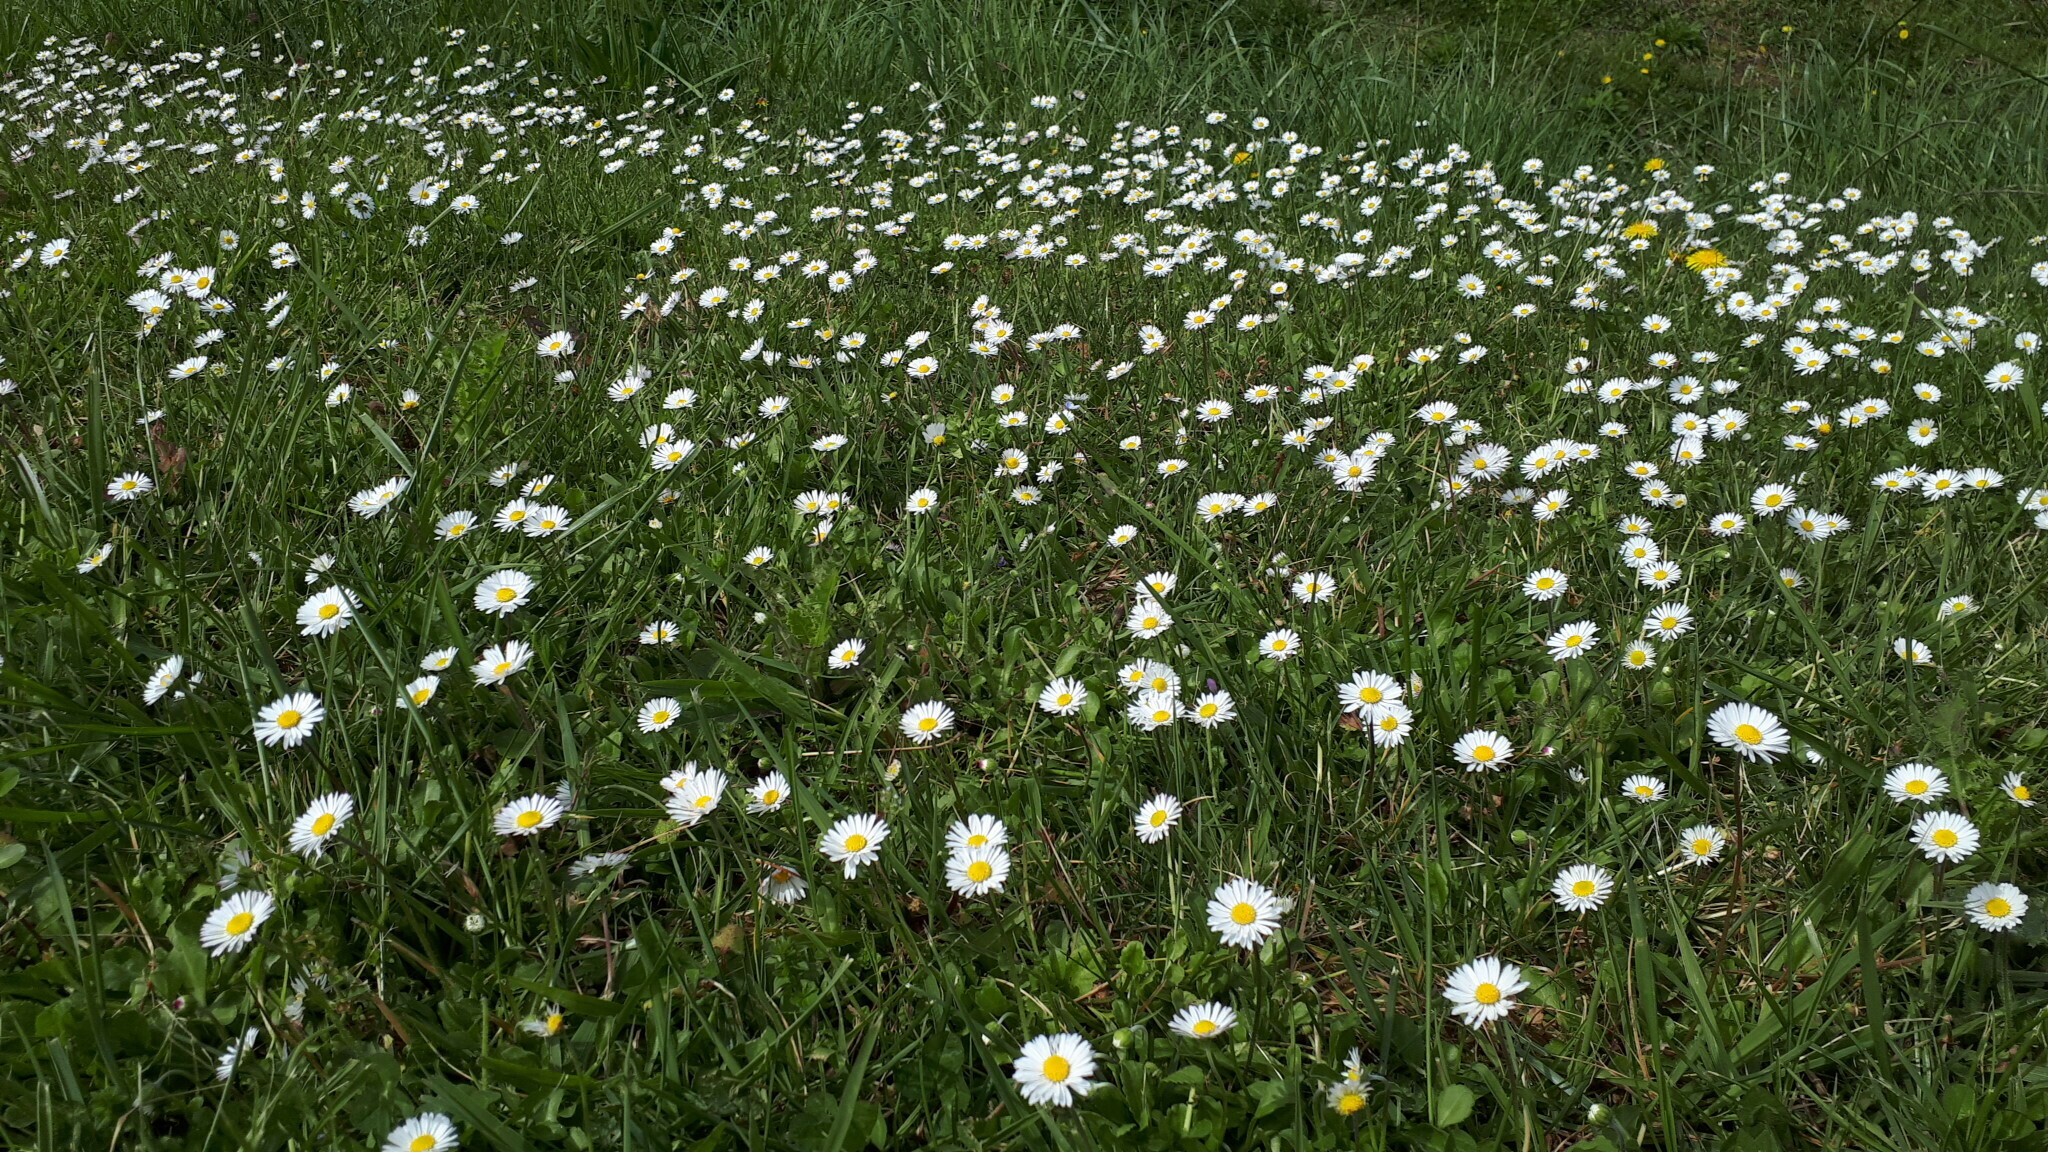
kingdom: Plantae
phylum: Tracheophyta
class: Magnoliopsida
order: Asterales
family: Asteraceae
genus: Bellis
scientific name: Bellis perennis
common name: Lawndaisy
